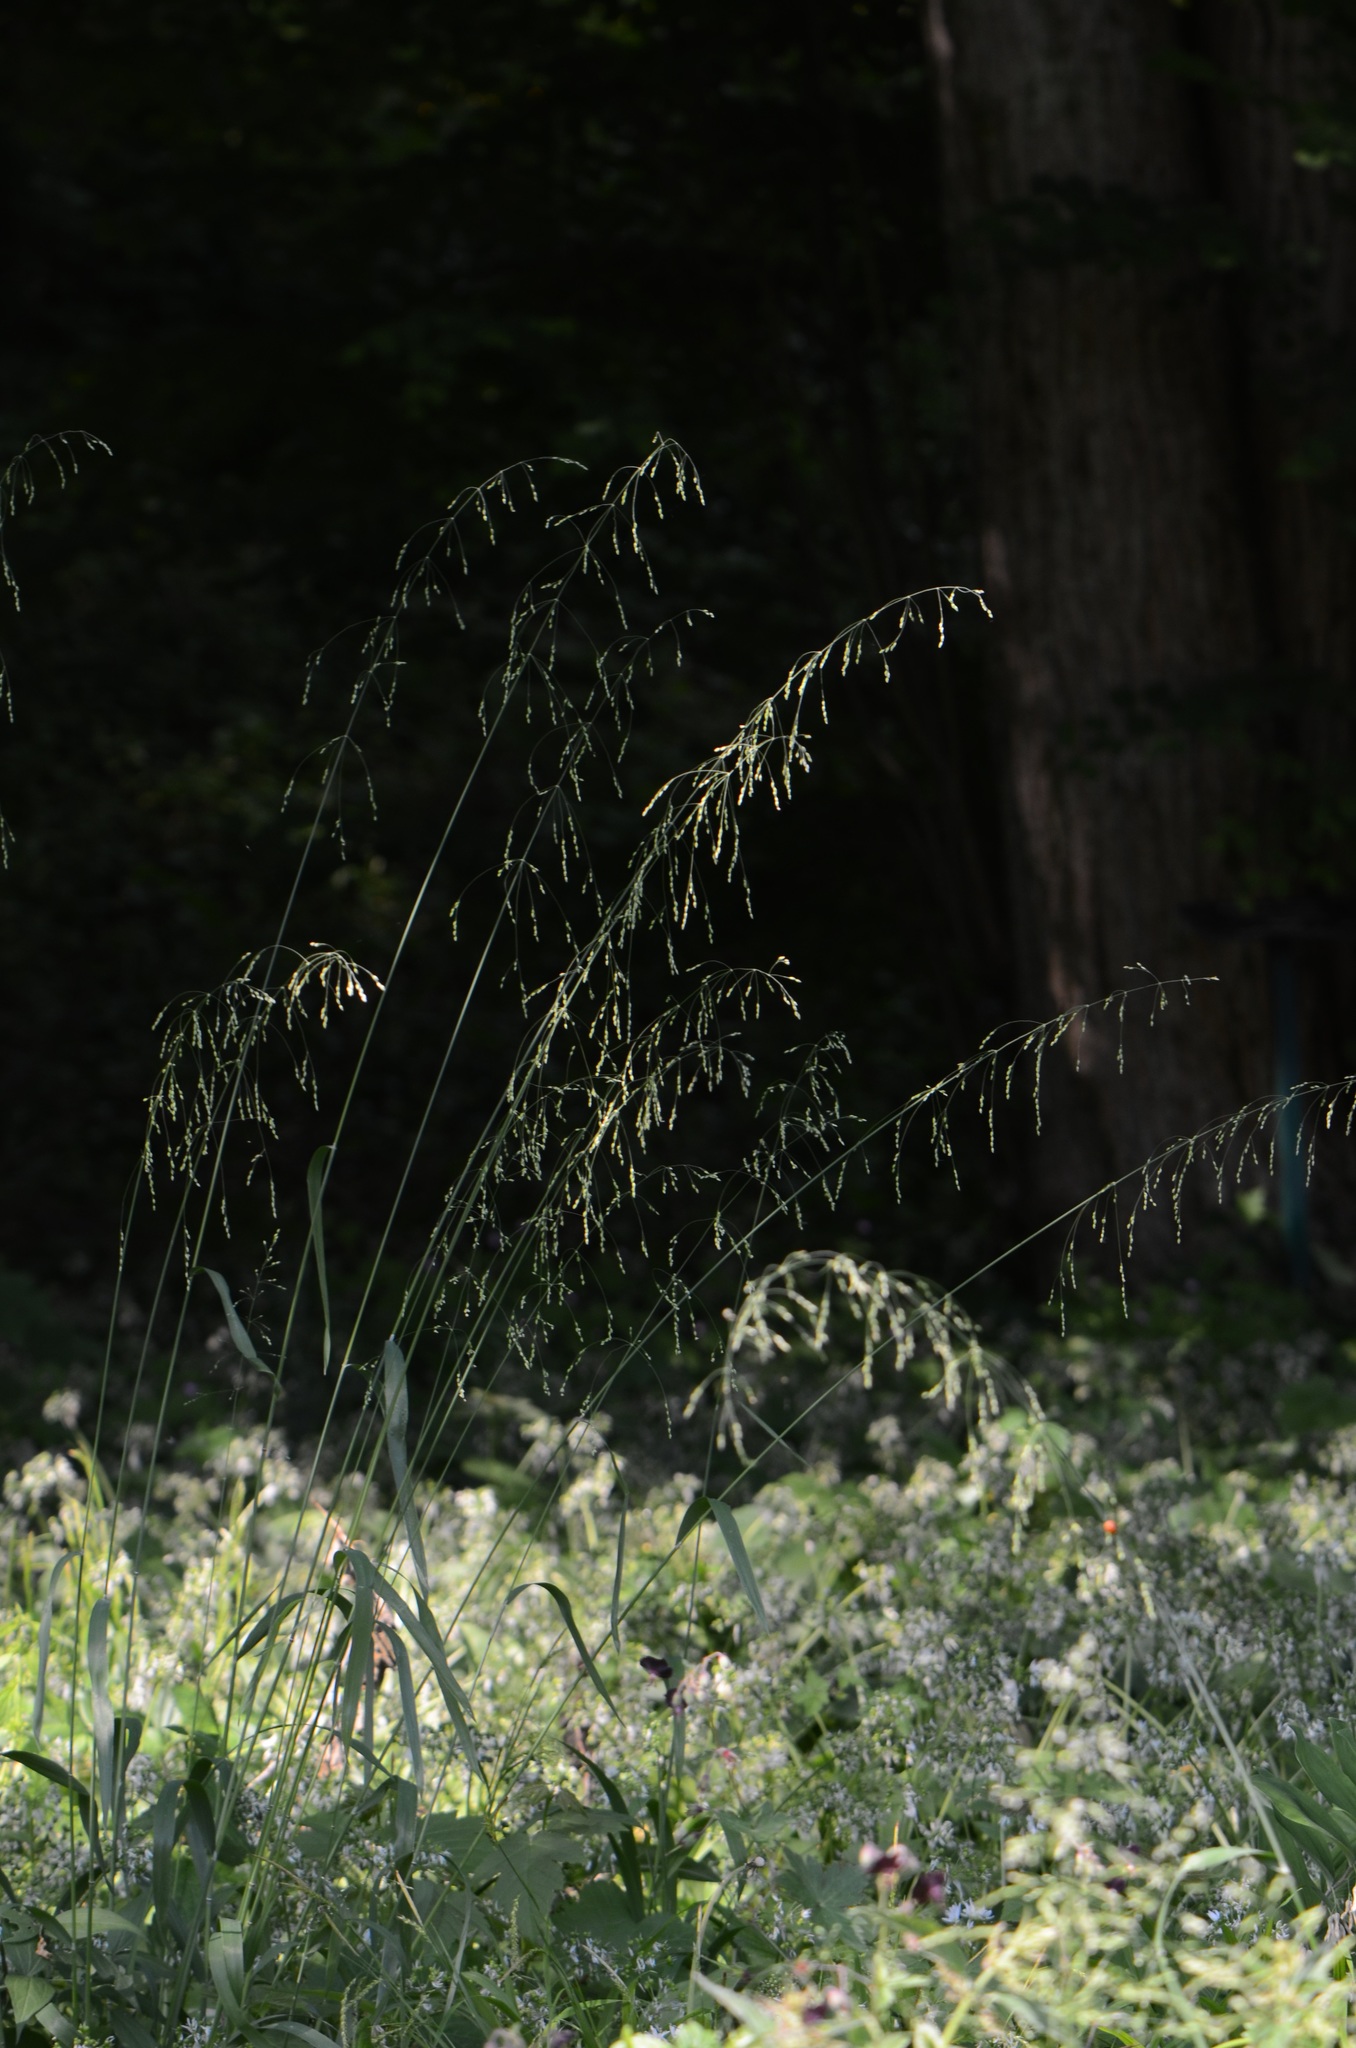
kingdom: Plantae
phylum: Tracheophyta
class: Liliopsida
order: Poales
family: Poaceae
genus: Milium
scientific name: Milium effusum
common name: Wood millet
